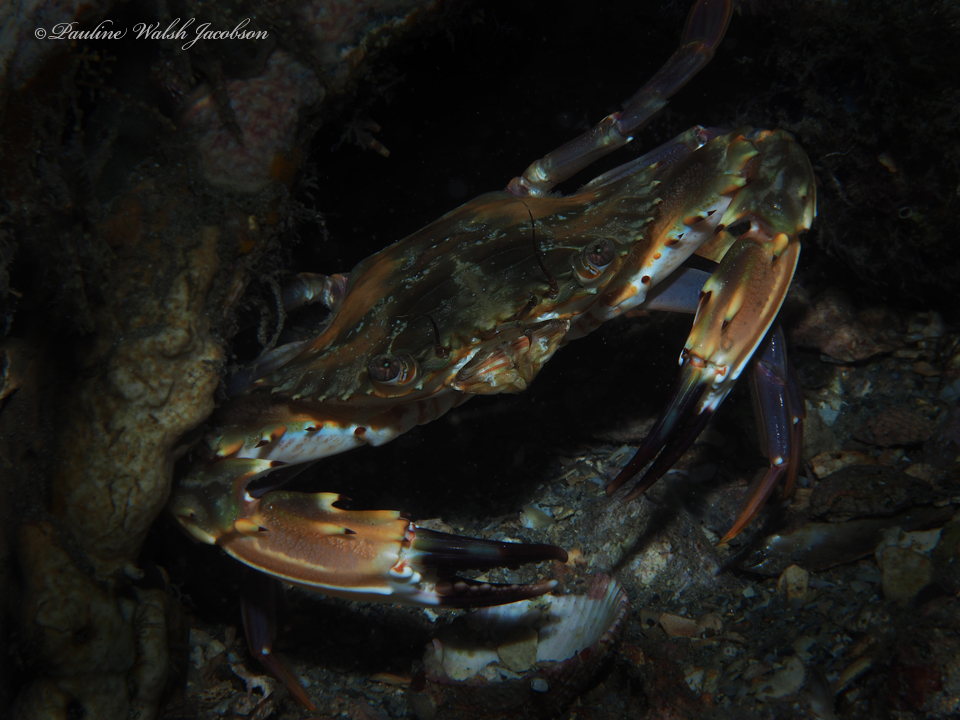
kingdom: Animalia
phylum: Arthropoda
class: Malacostraca
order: Decapoda
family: Portunidae
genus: Charybdis
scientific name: Charybdis hellerii
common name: Spiny hands
